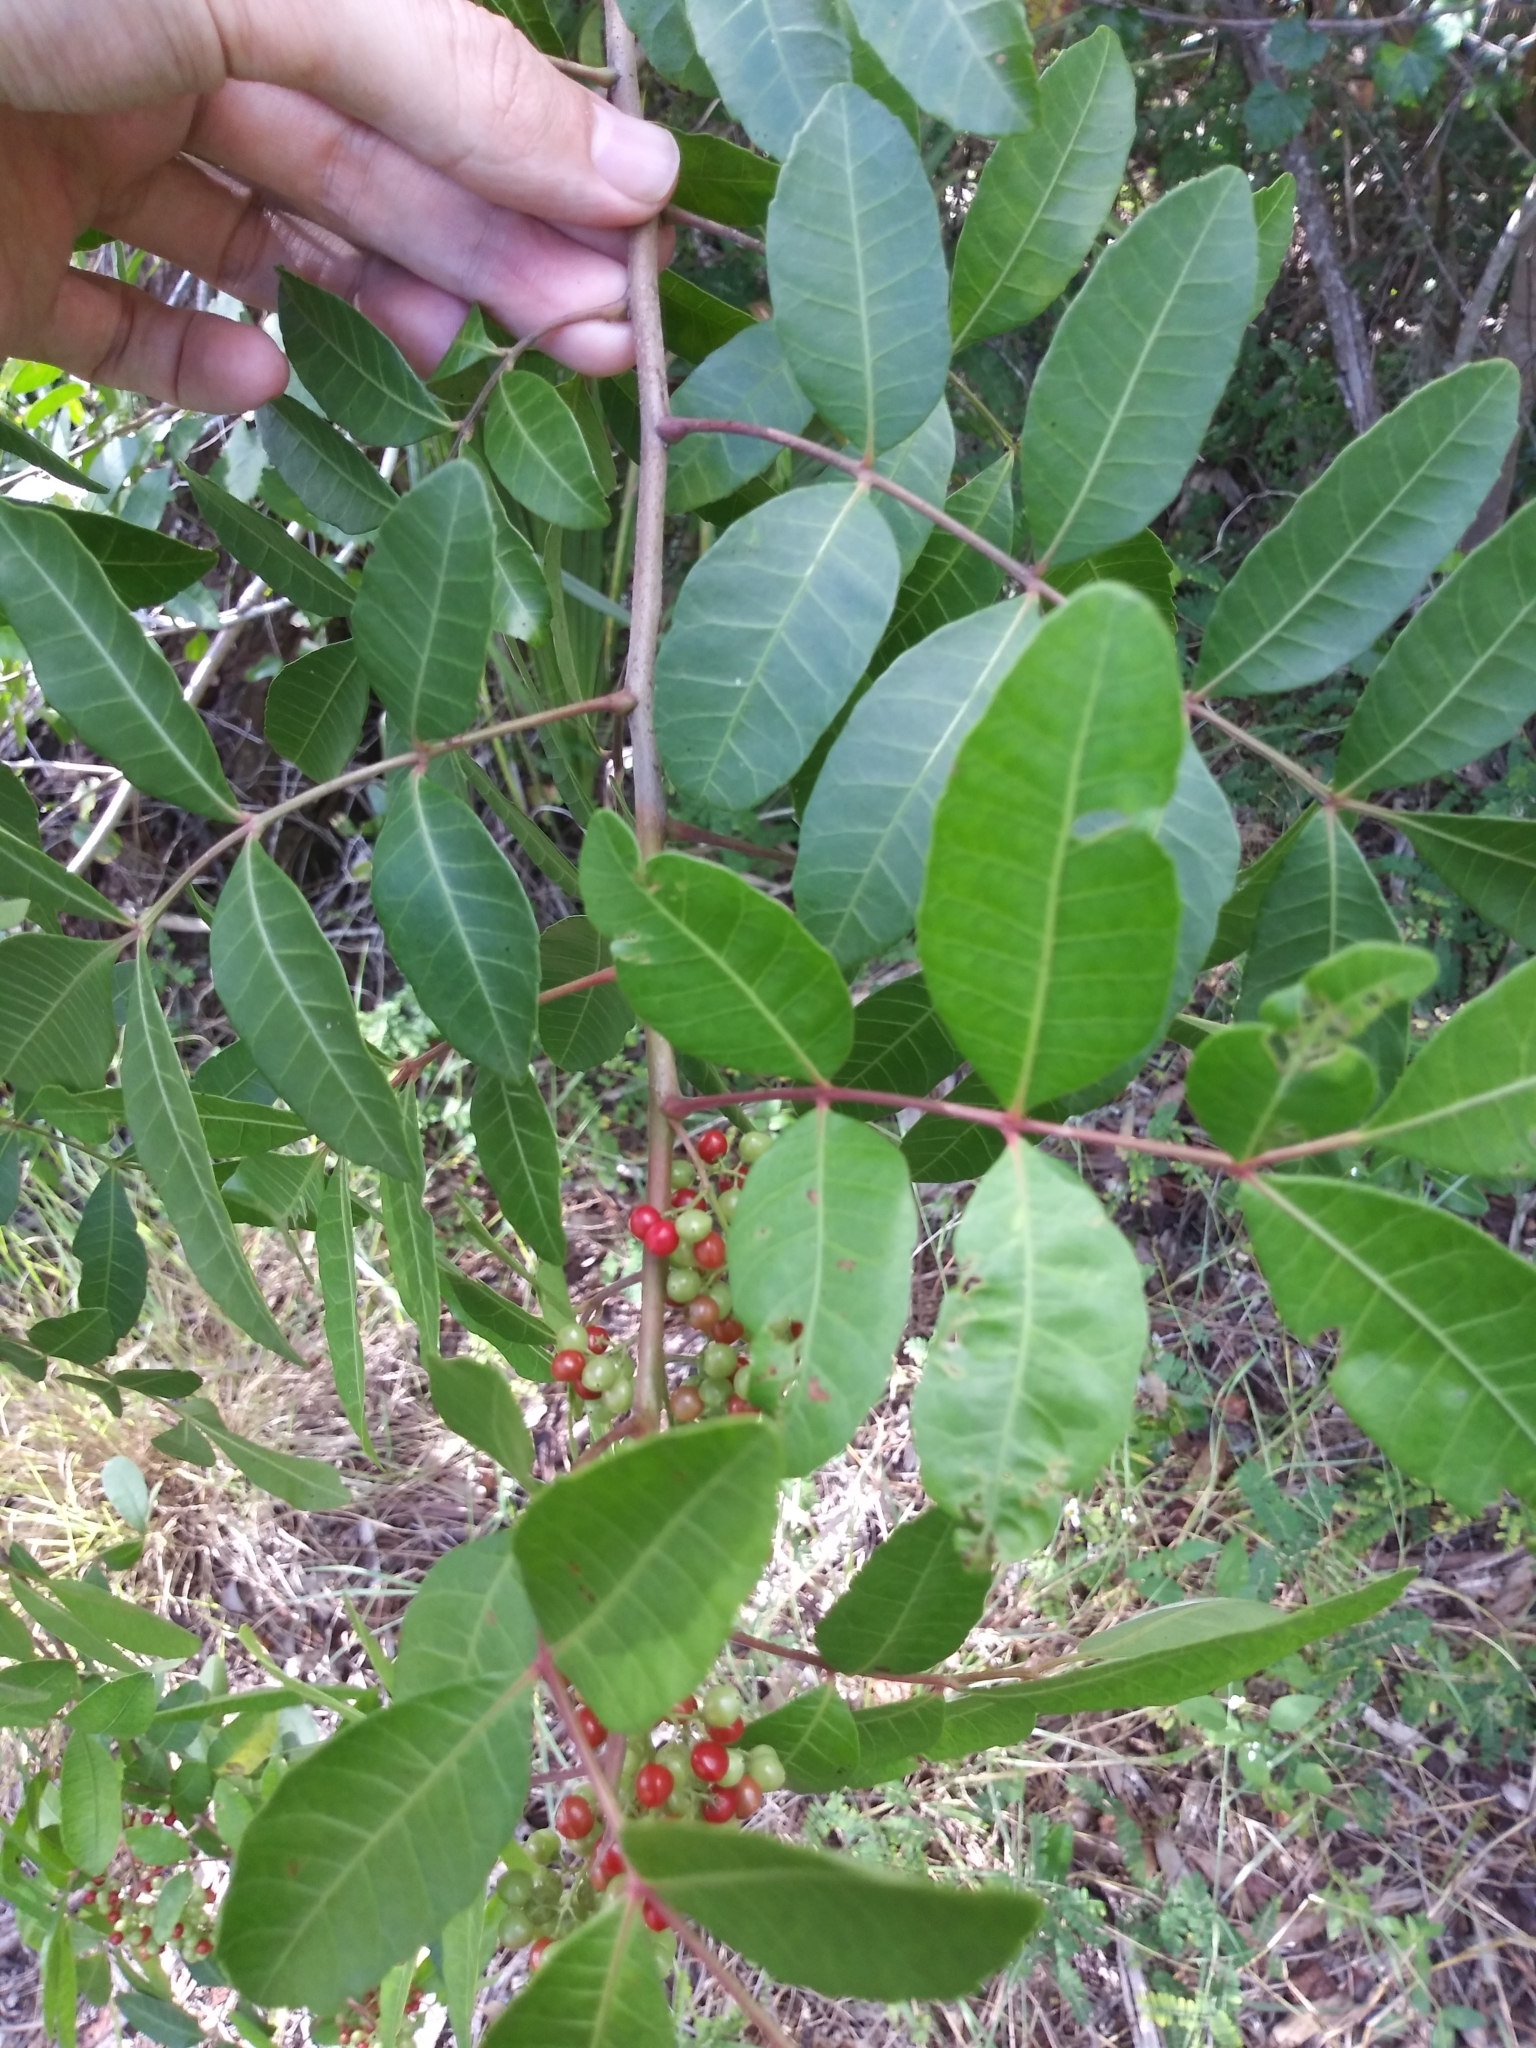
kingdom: Plantae
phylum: Tracheophyta
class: Magnoliopsida
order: Sapindales
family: Anacardiaceae
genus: Schinus
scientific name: Schinus terebinthifolia
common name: Brazilian peppertree
